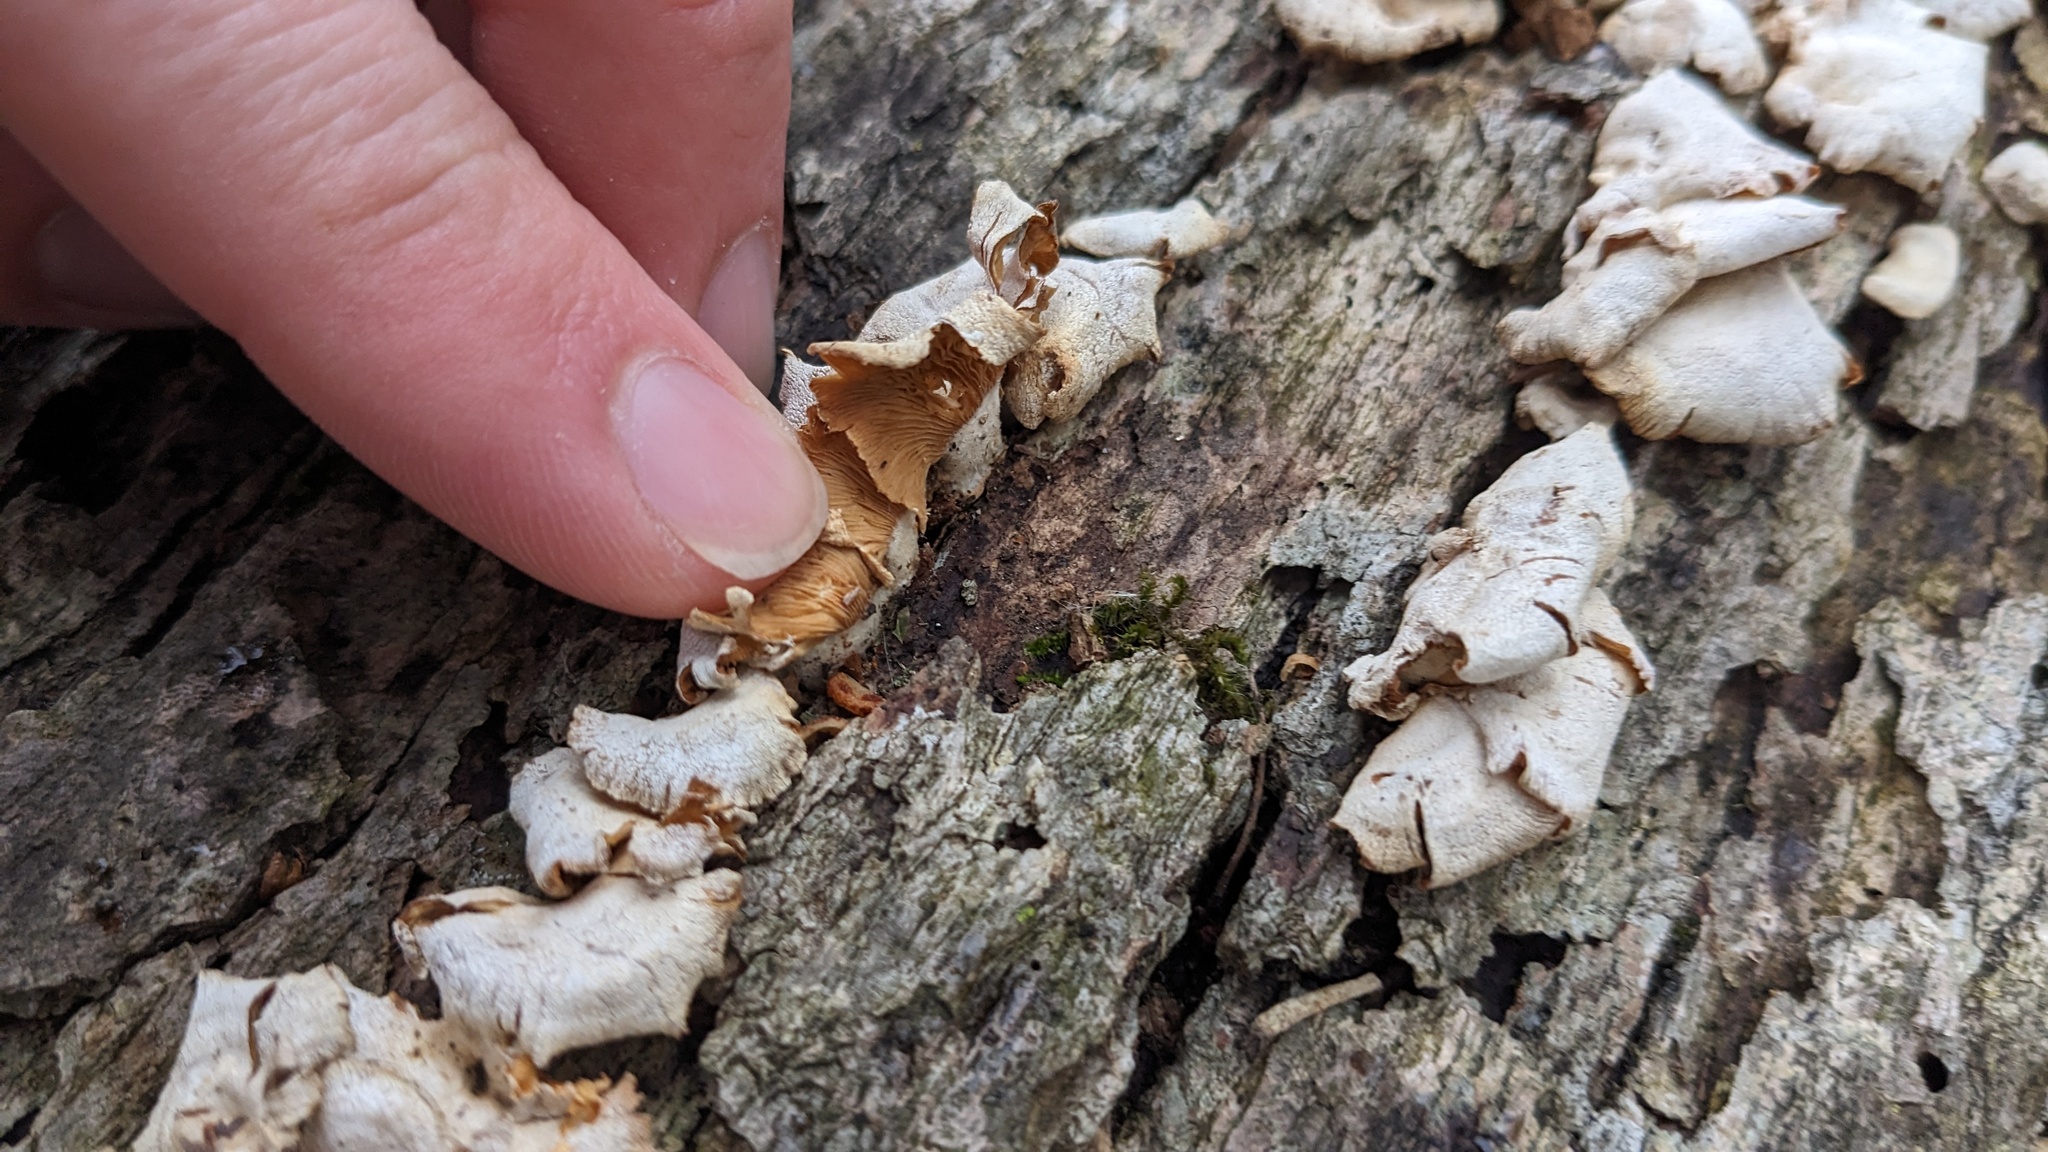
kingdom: Fungi
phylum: Basidiomycota
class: Agaricomycetes
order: Agaricales
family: Mycenaceae
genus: Panellus
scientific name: Panellus stipticus
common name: Bitter oysterling
